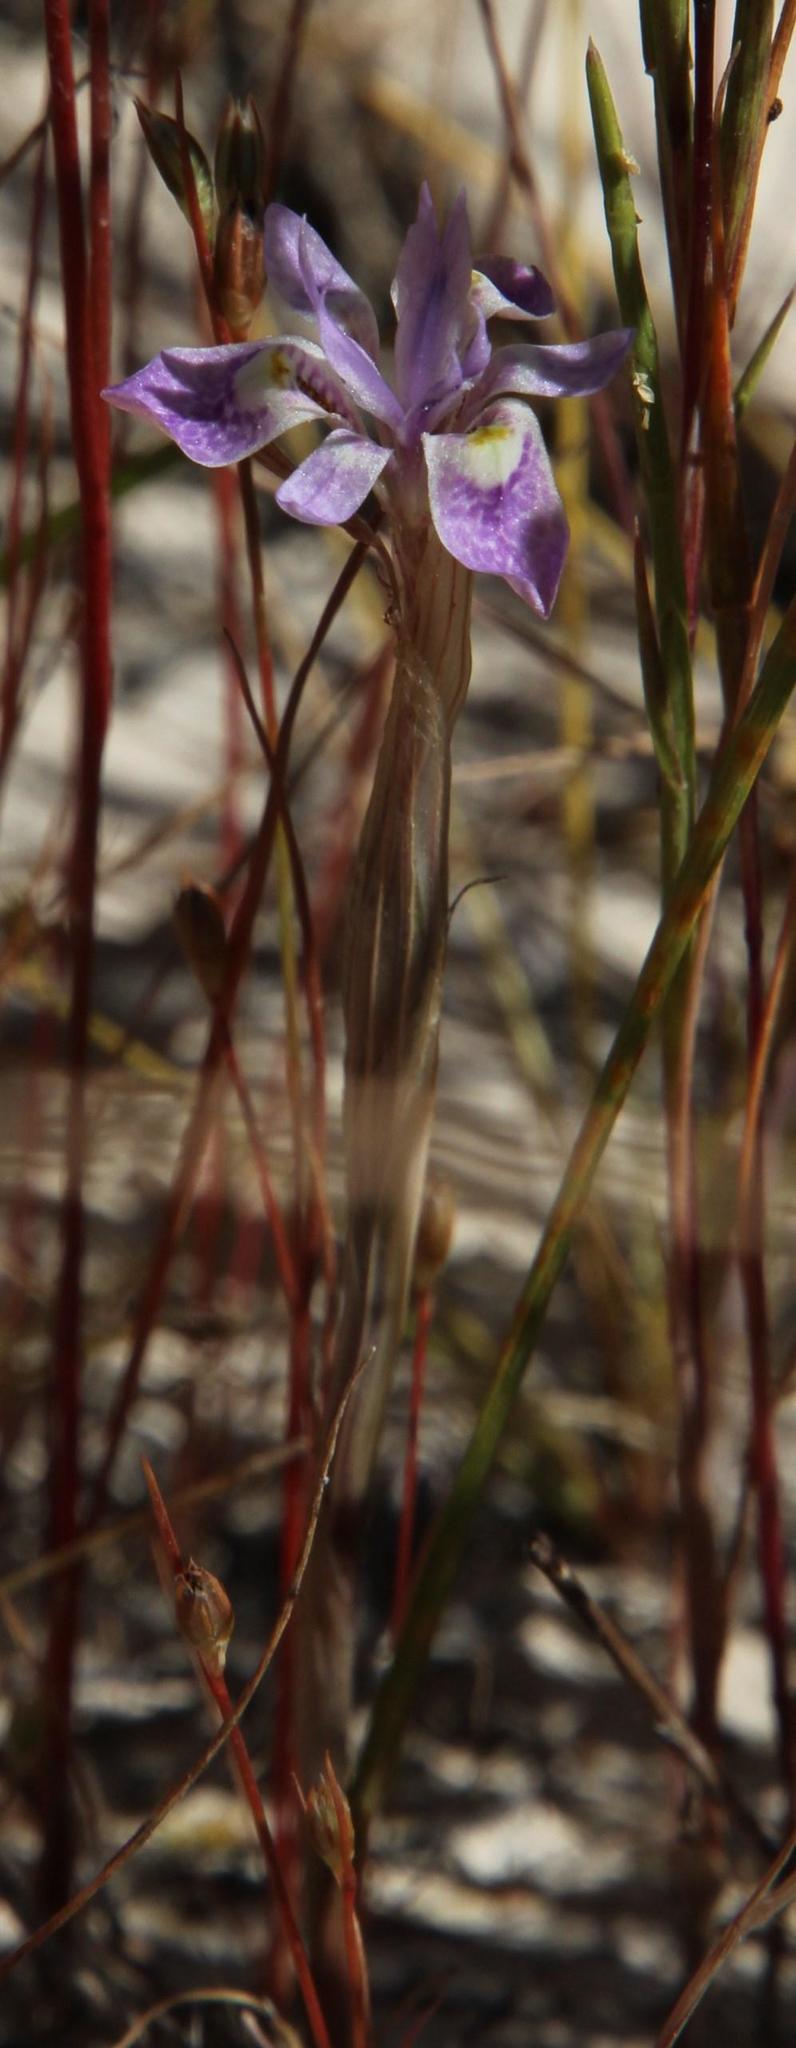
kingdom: Plantae
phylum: Tracheophyta
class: Liliopsida
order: Asparagales
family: Iridaceae
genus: Moraea
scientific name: Moraea setifolia
